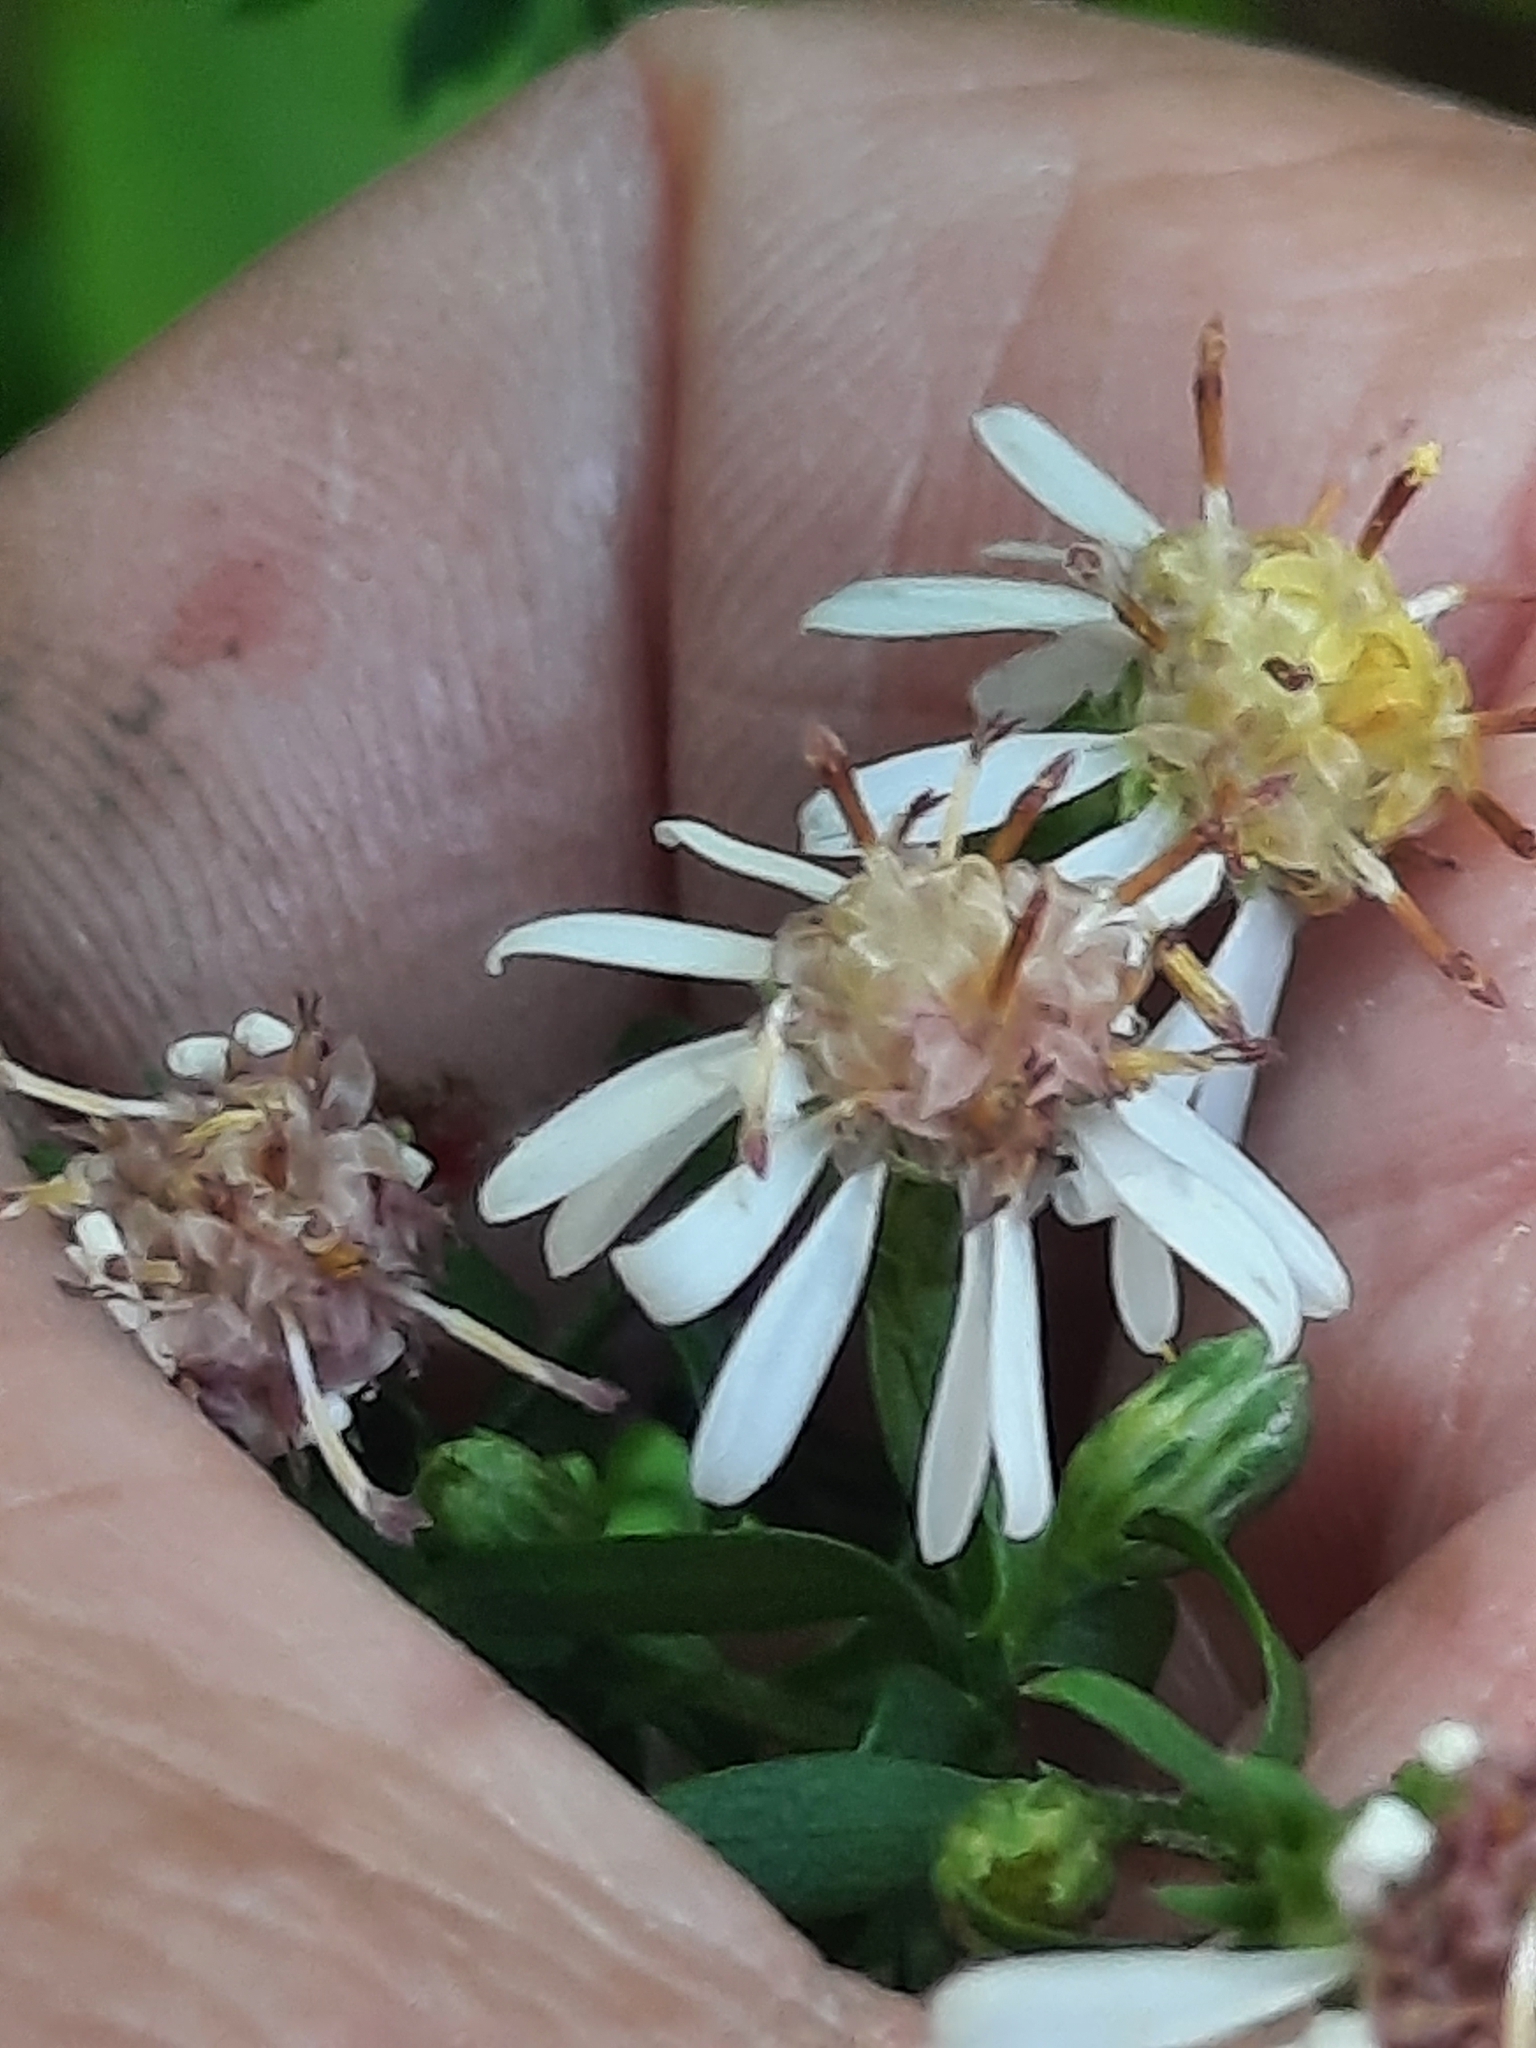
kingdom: Plantae
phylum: Tracheophyta
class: Magnoliopsida
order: Asterales
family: Asteraceae
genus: Symphyotrichum
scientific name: Symphyotrichum lateriflorum
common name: Calico aster
